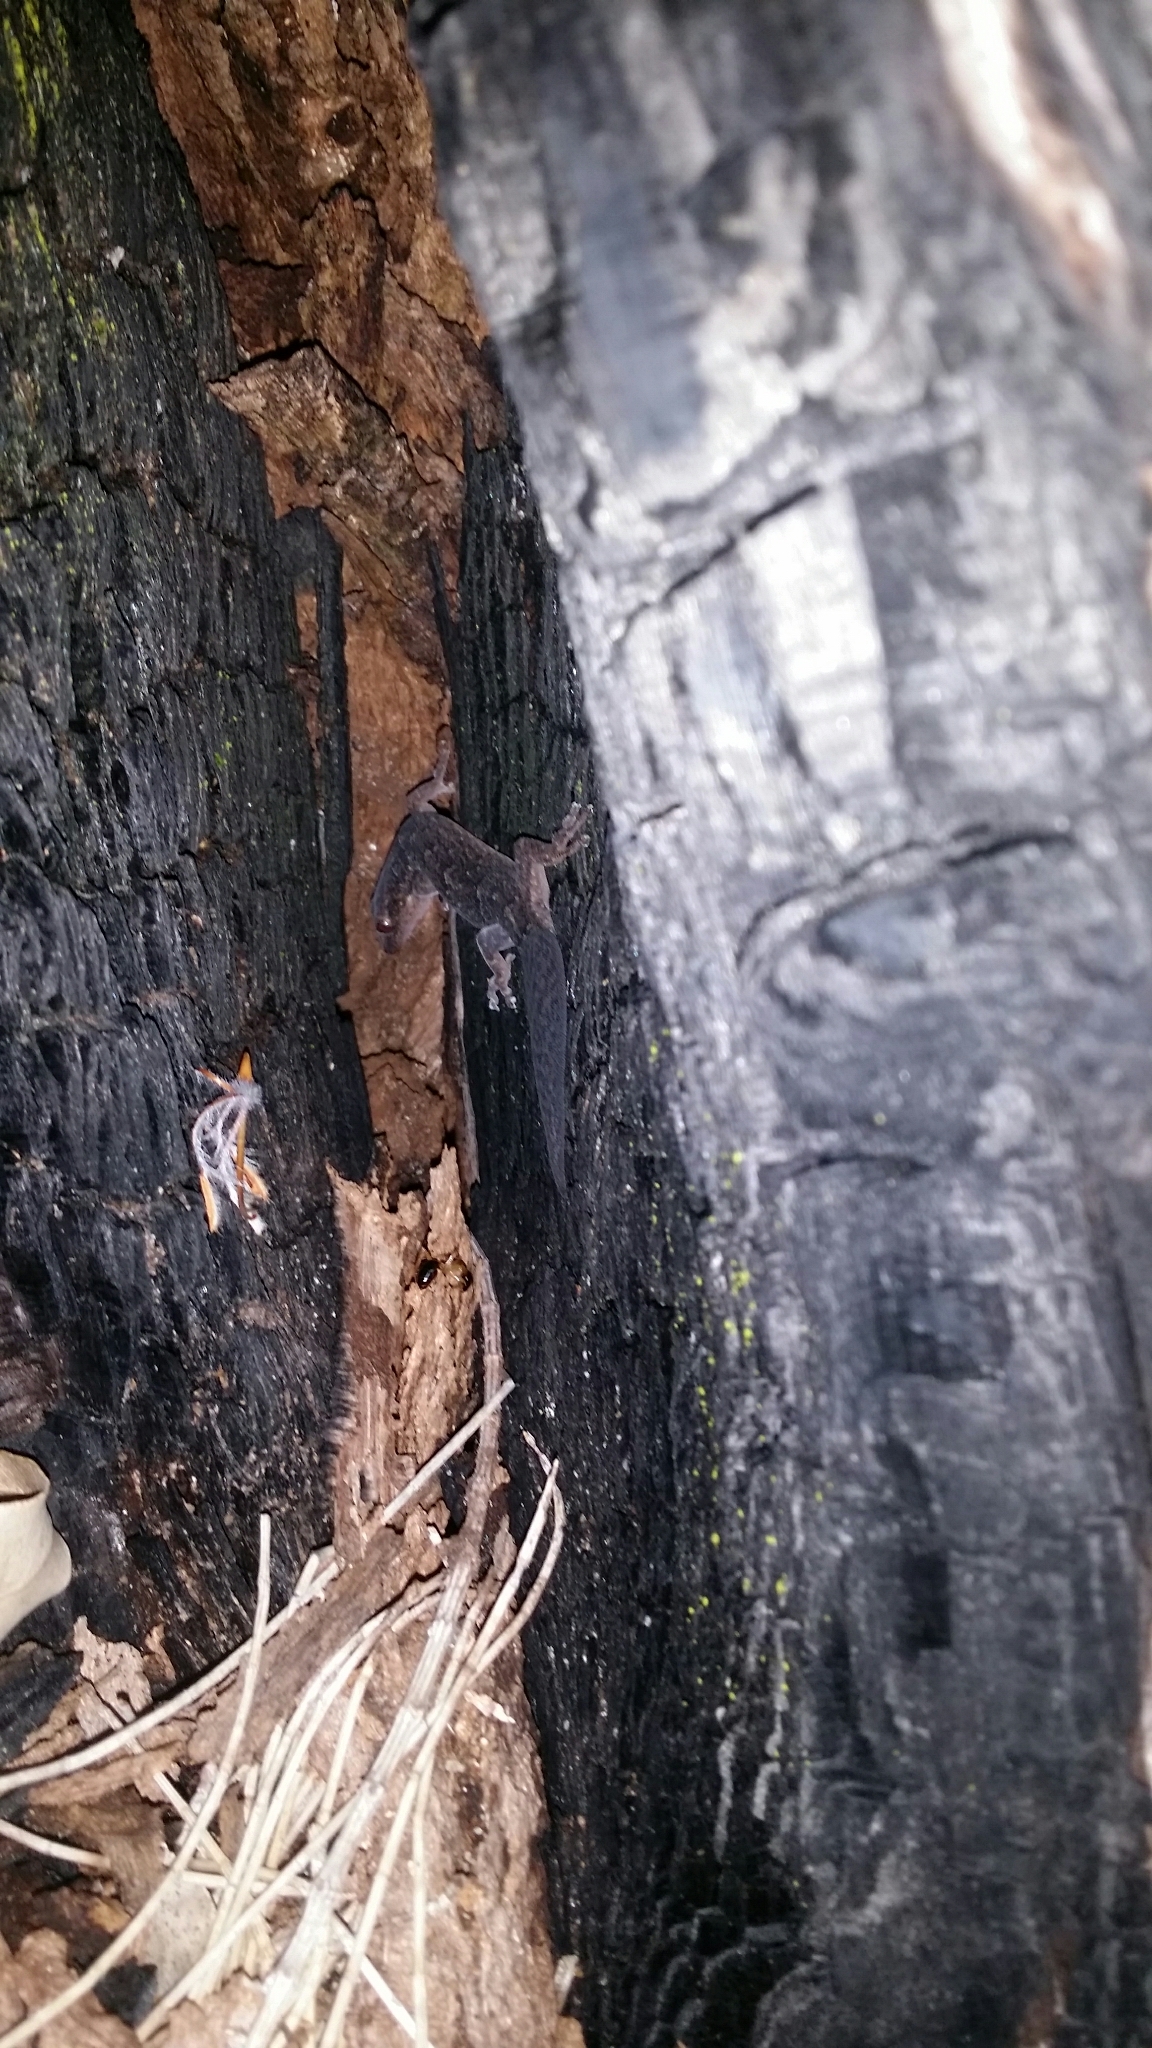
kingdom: Animalia
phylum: Chordata
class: Squamata
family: Gekkonidae
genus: Christinus
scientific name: Christinus marmoratus
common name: Marbled gecko
